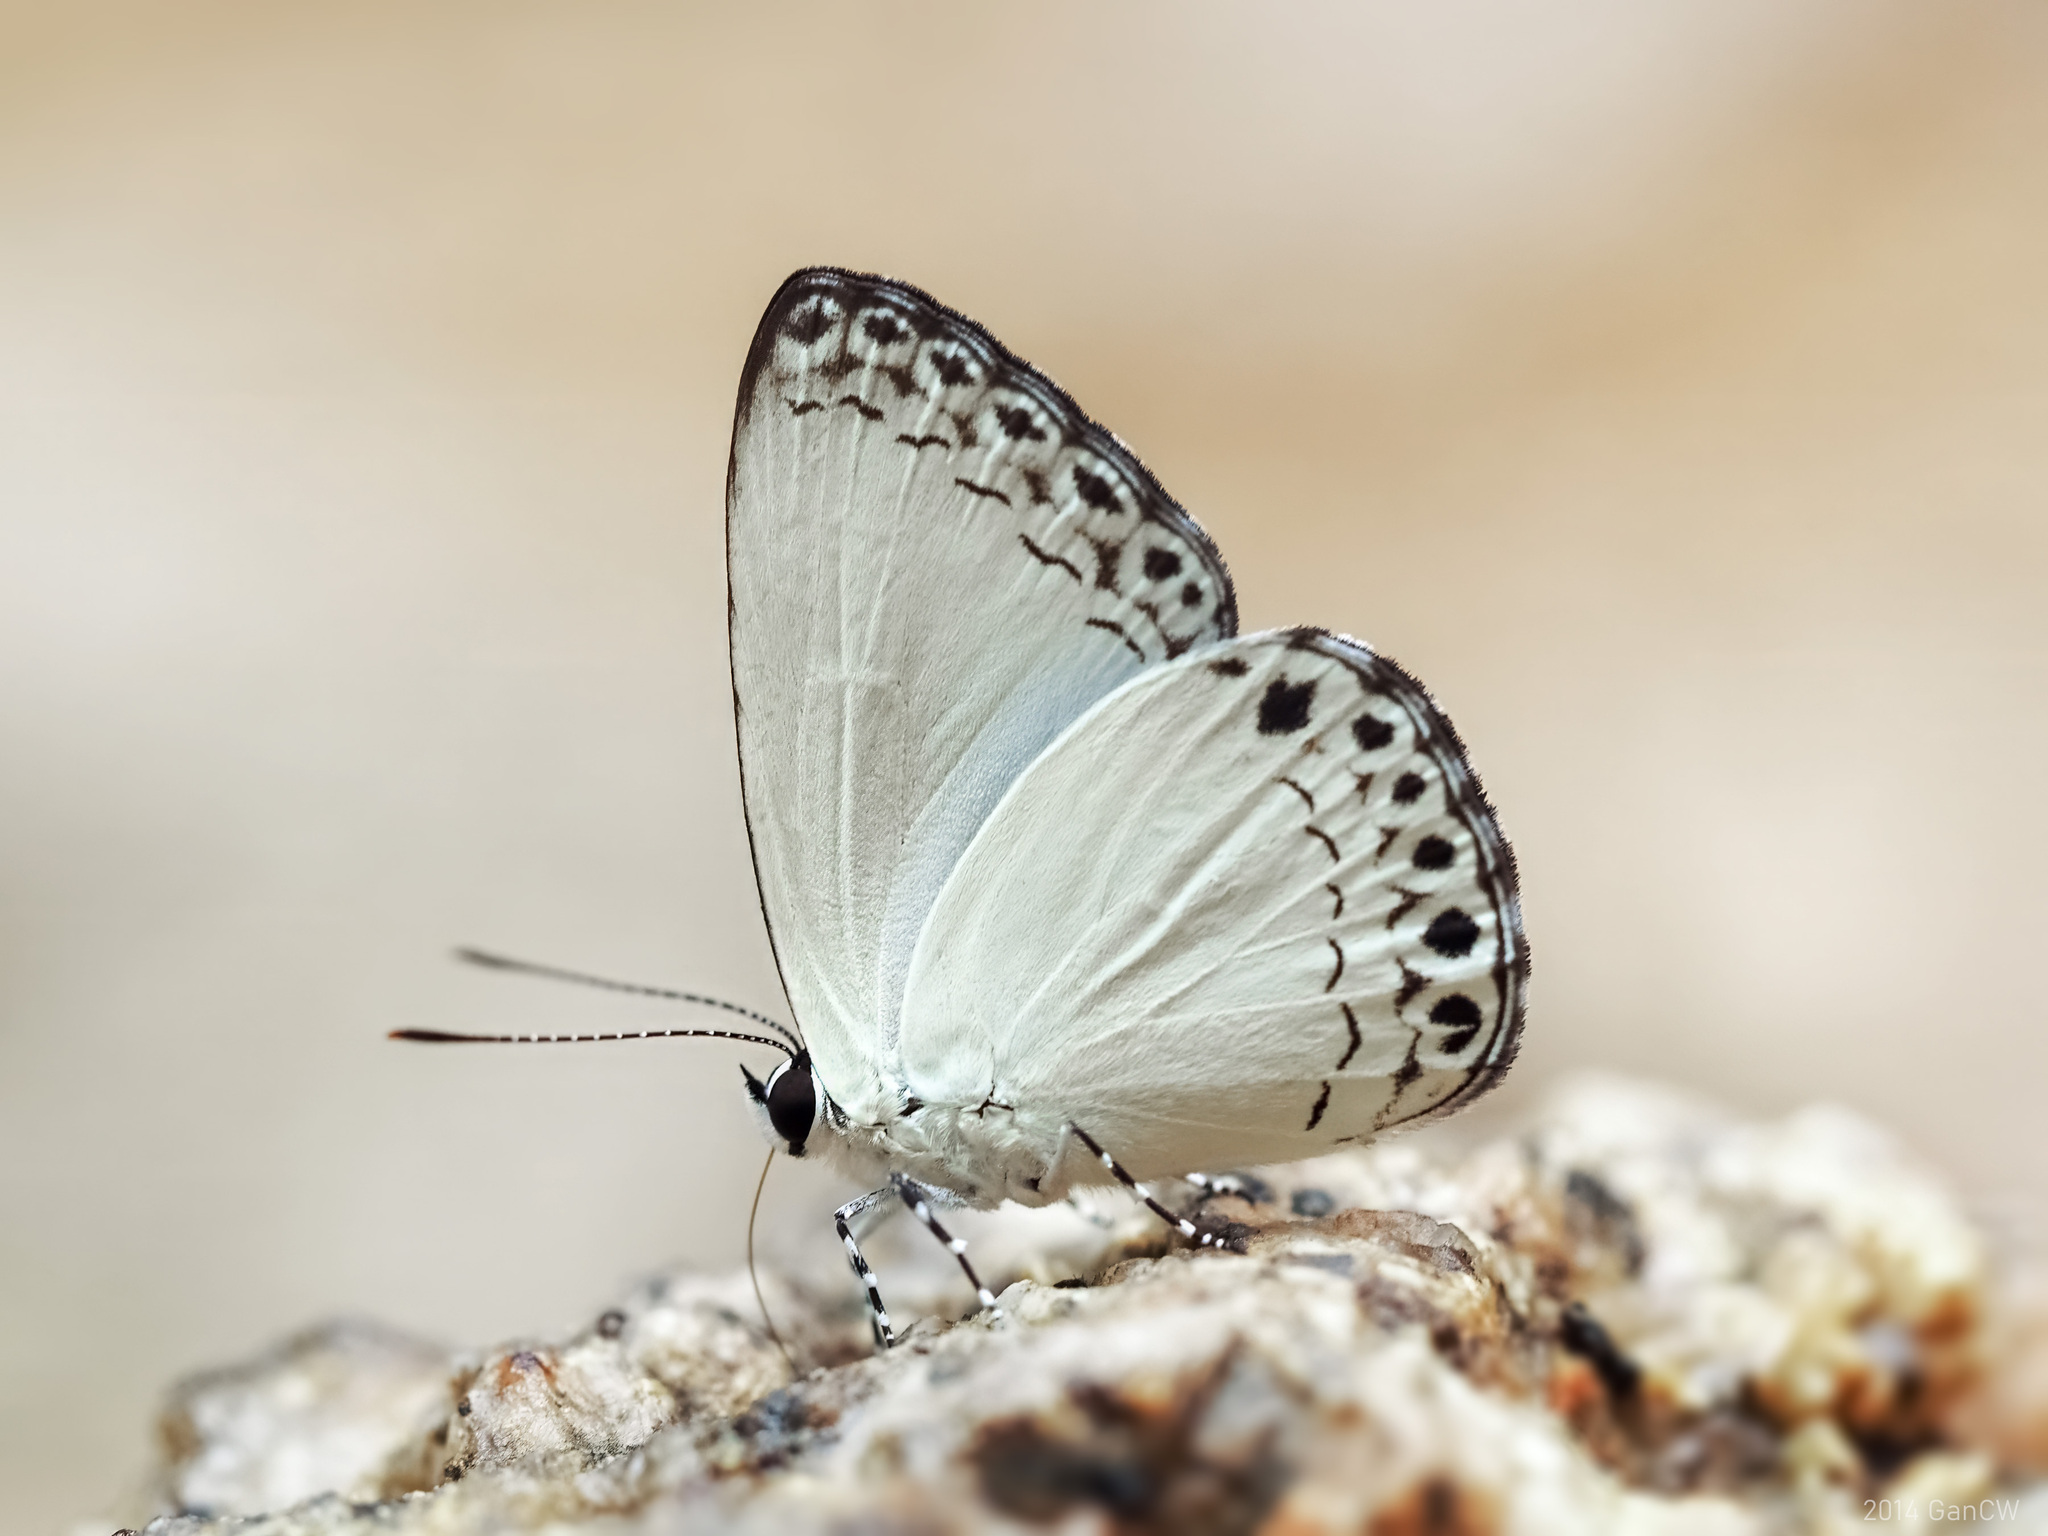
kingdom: Animalia
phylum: Arthropoda
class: Insecta
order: Lepidoptera
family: Lycaenidae
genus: Lycaenopsis
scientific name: Lycaenopsis haraldus
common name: Felder's hedge blue
